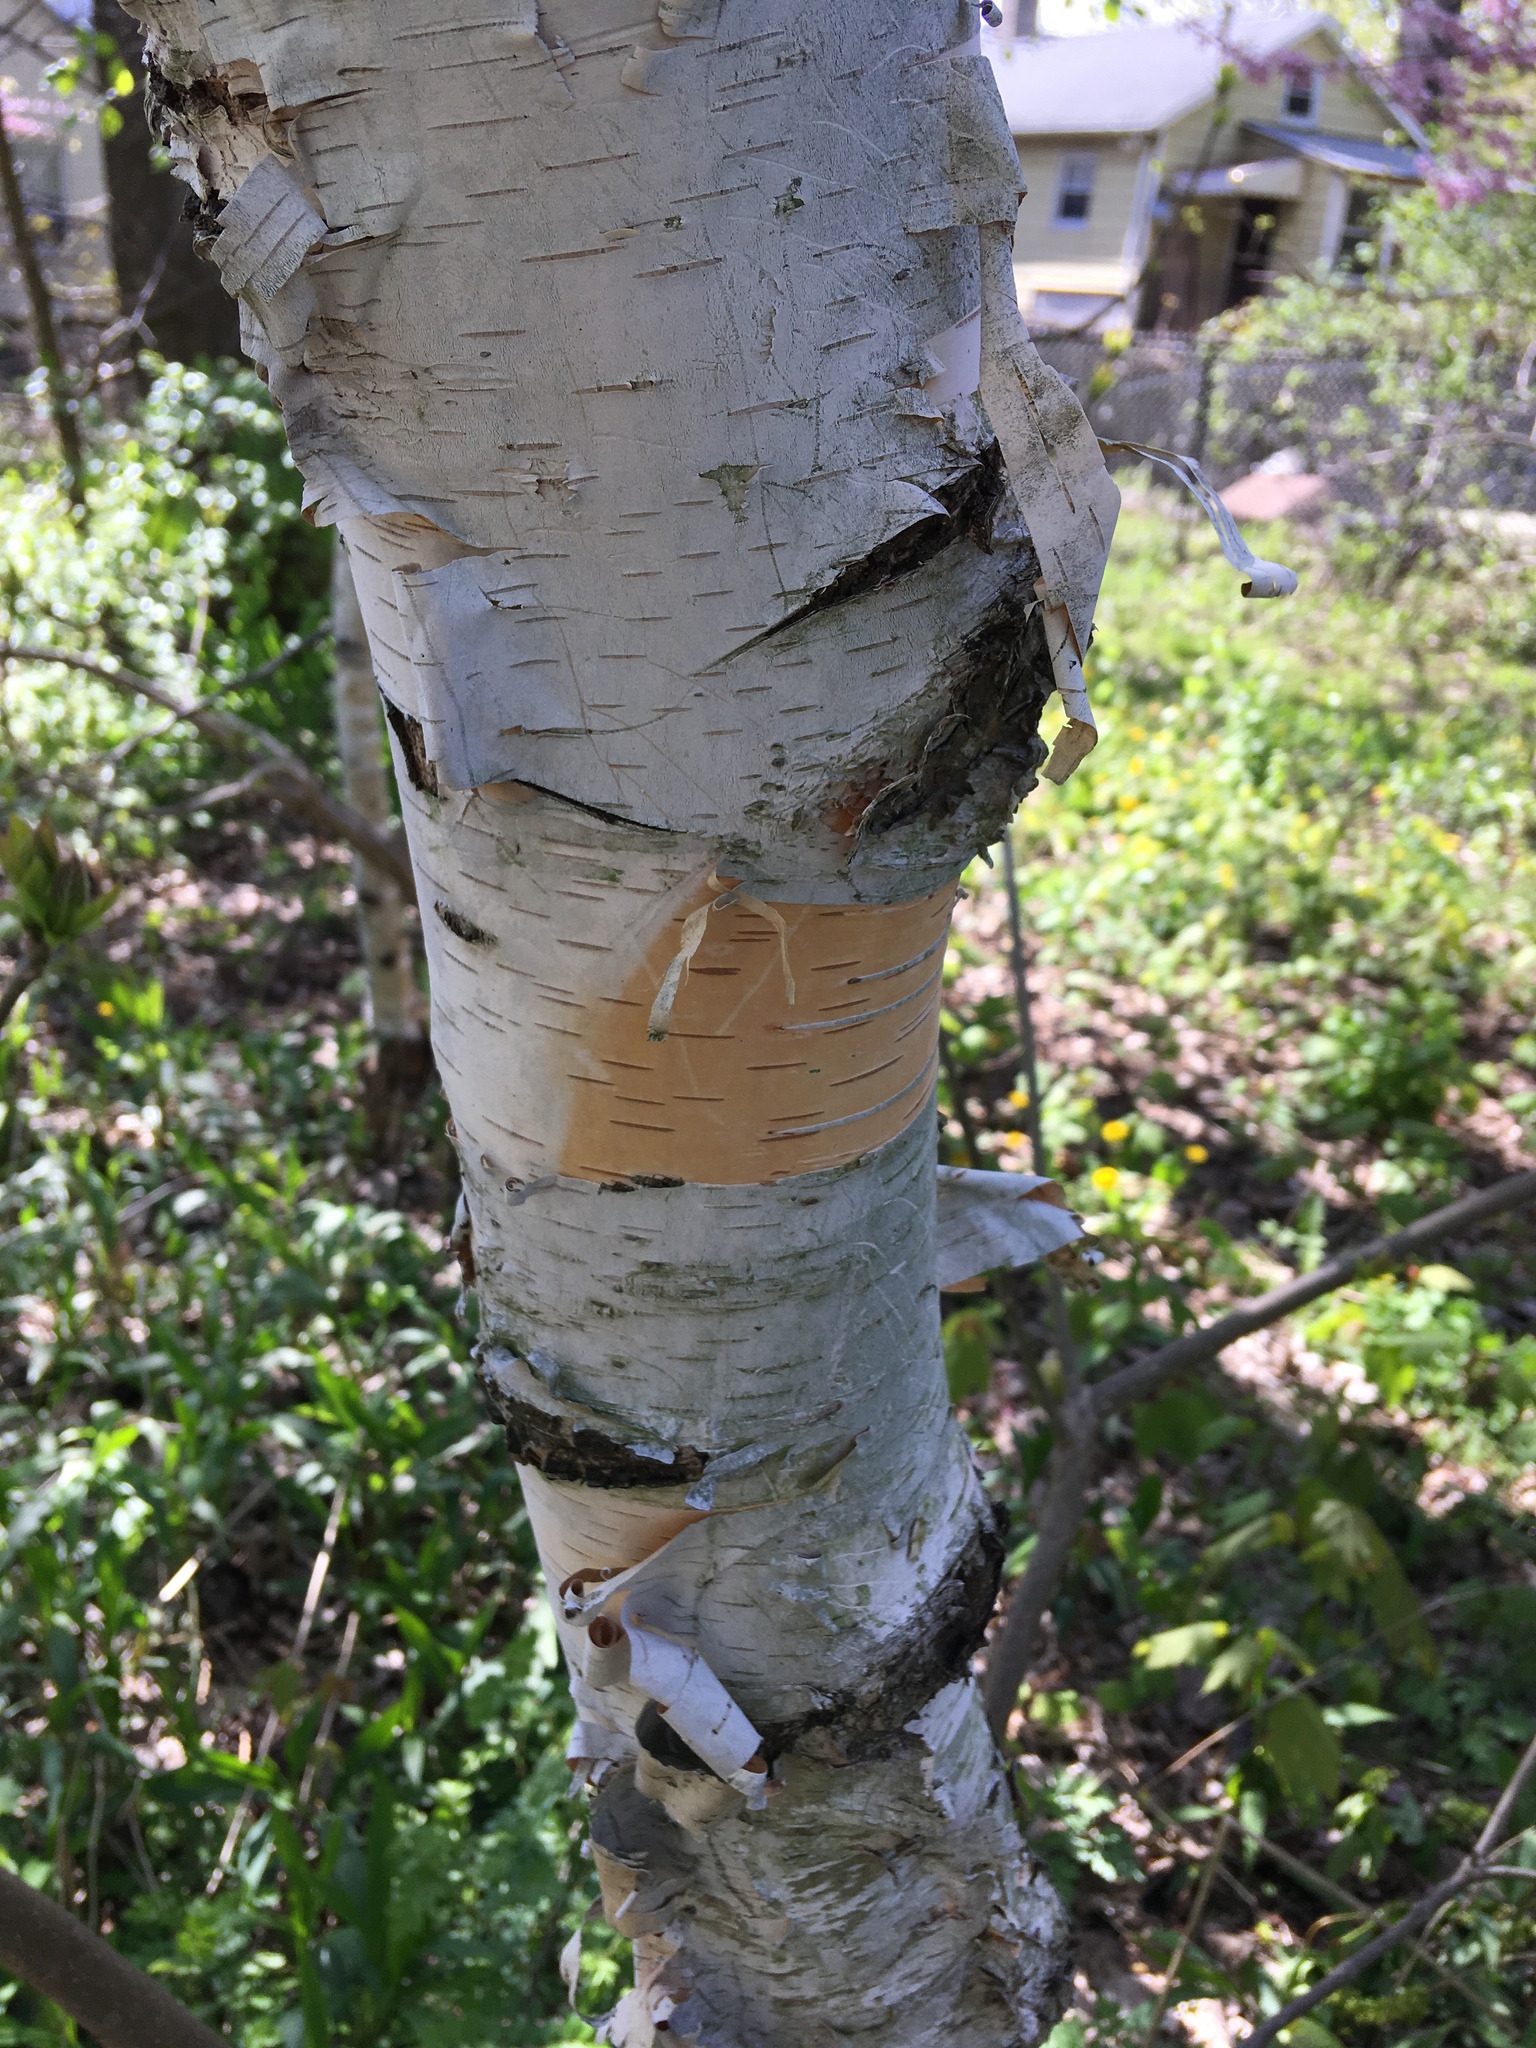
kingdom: Plantae
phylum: Tracheophyta
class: Magnoliopsida
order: Fagales
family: Betulaceae
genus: Betula
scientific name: Betula papyrifera
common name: Paper birch
